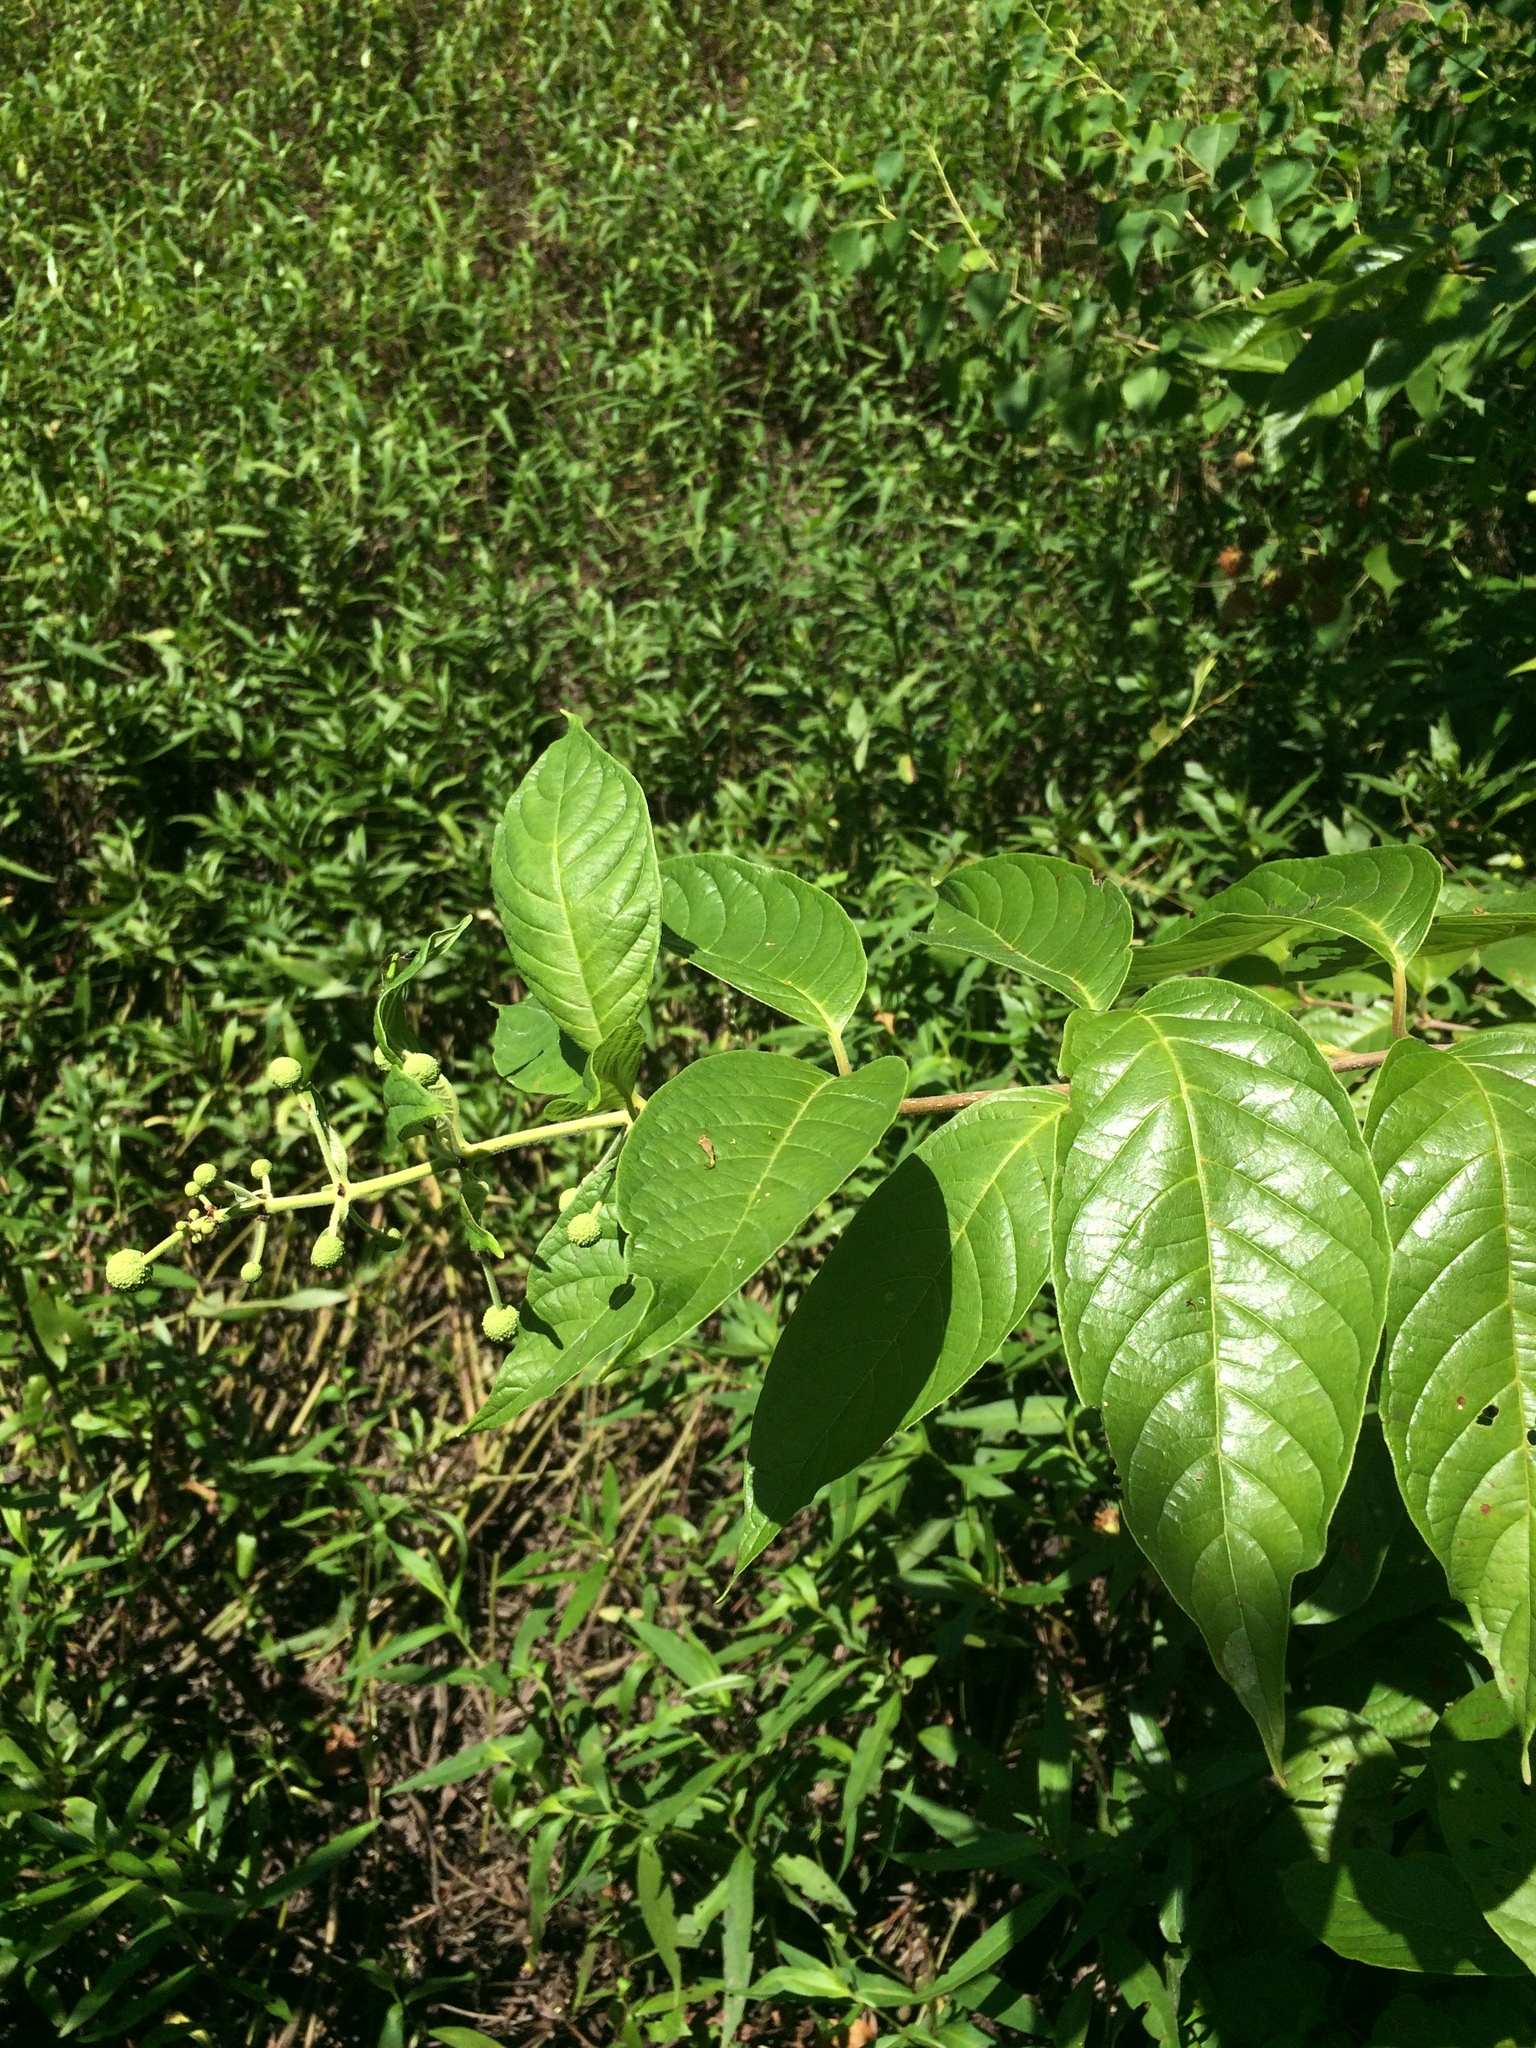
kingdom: Plantae
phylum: Tracheophyta
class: Magnoliopsida
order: Gentianales
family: Rubiaceae
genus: Cephalanthus
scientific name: Cephalanthus occidentalis
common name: Button-willow
